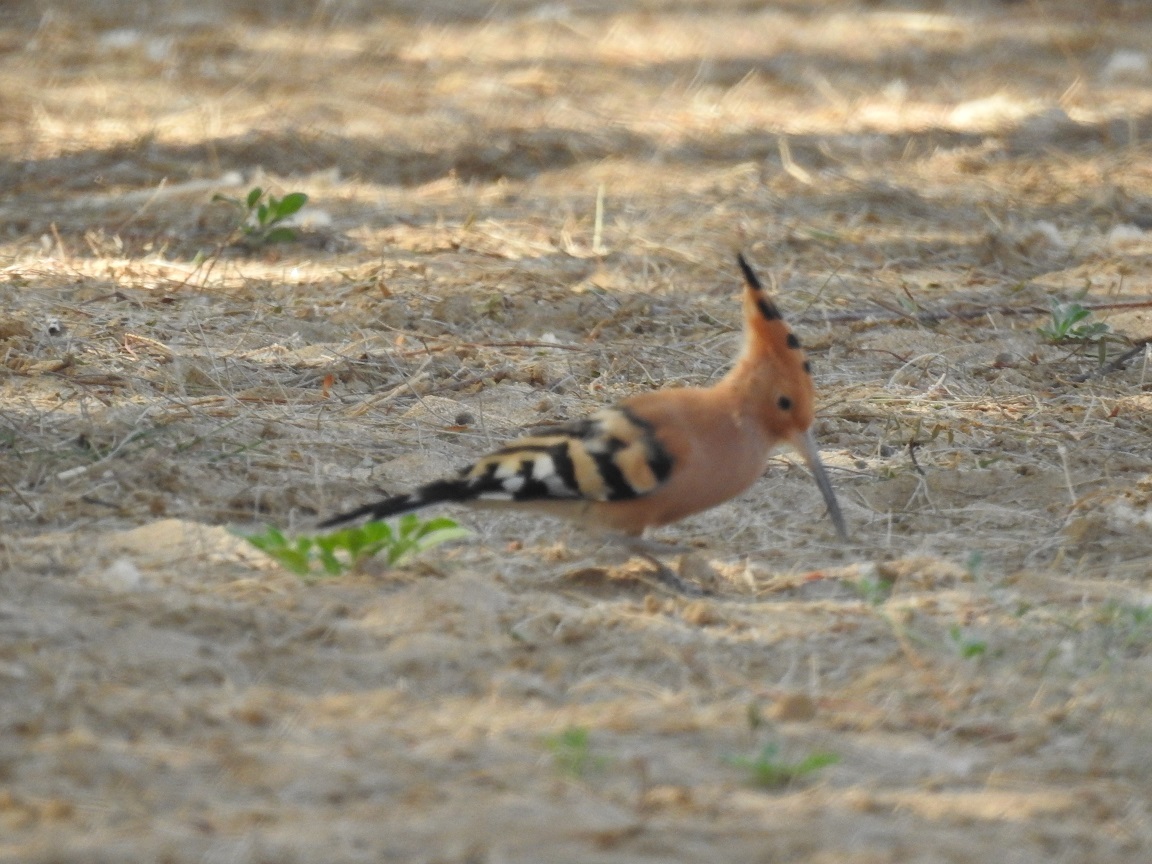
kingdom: Animalia
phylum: Chordata
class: Aves
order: Bucerotiformes
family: Upupidae
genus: Upupa
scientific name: Upupa epops
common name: Eurasian hoopoe
